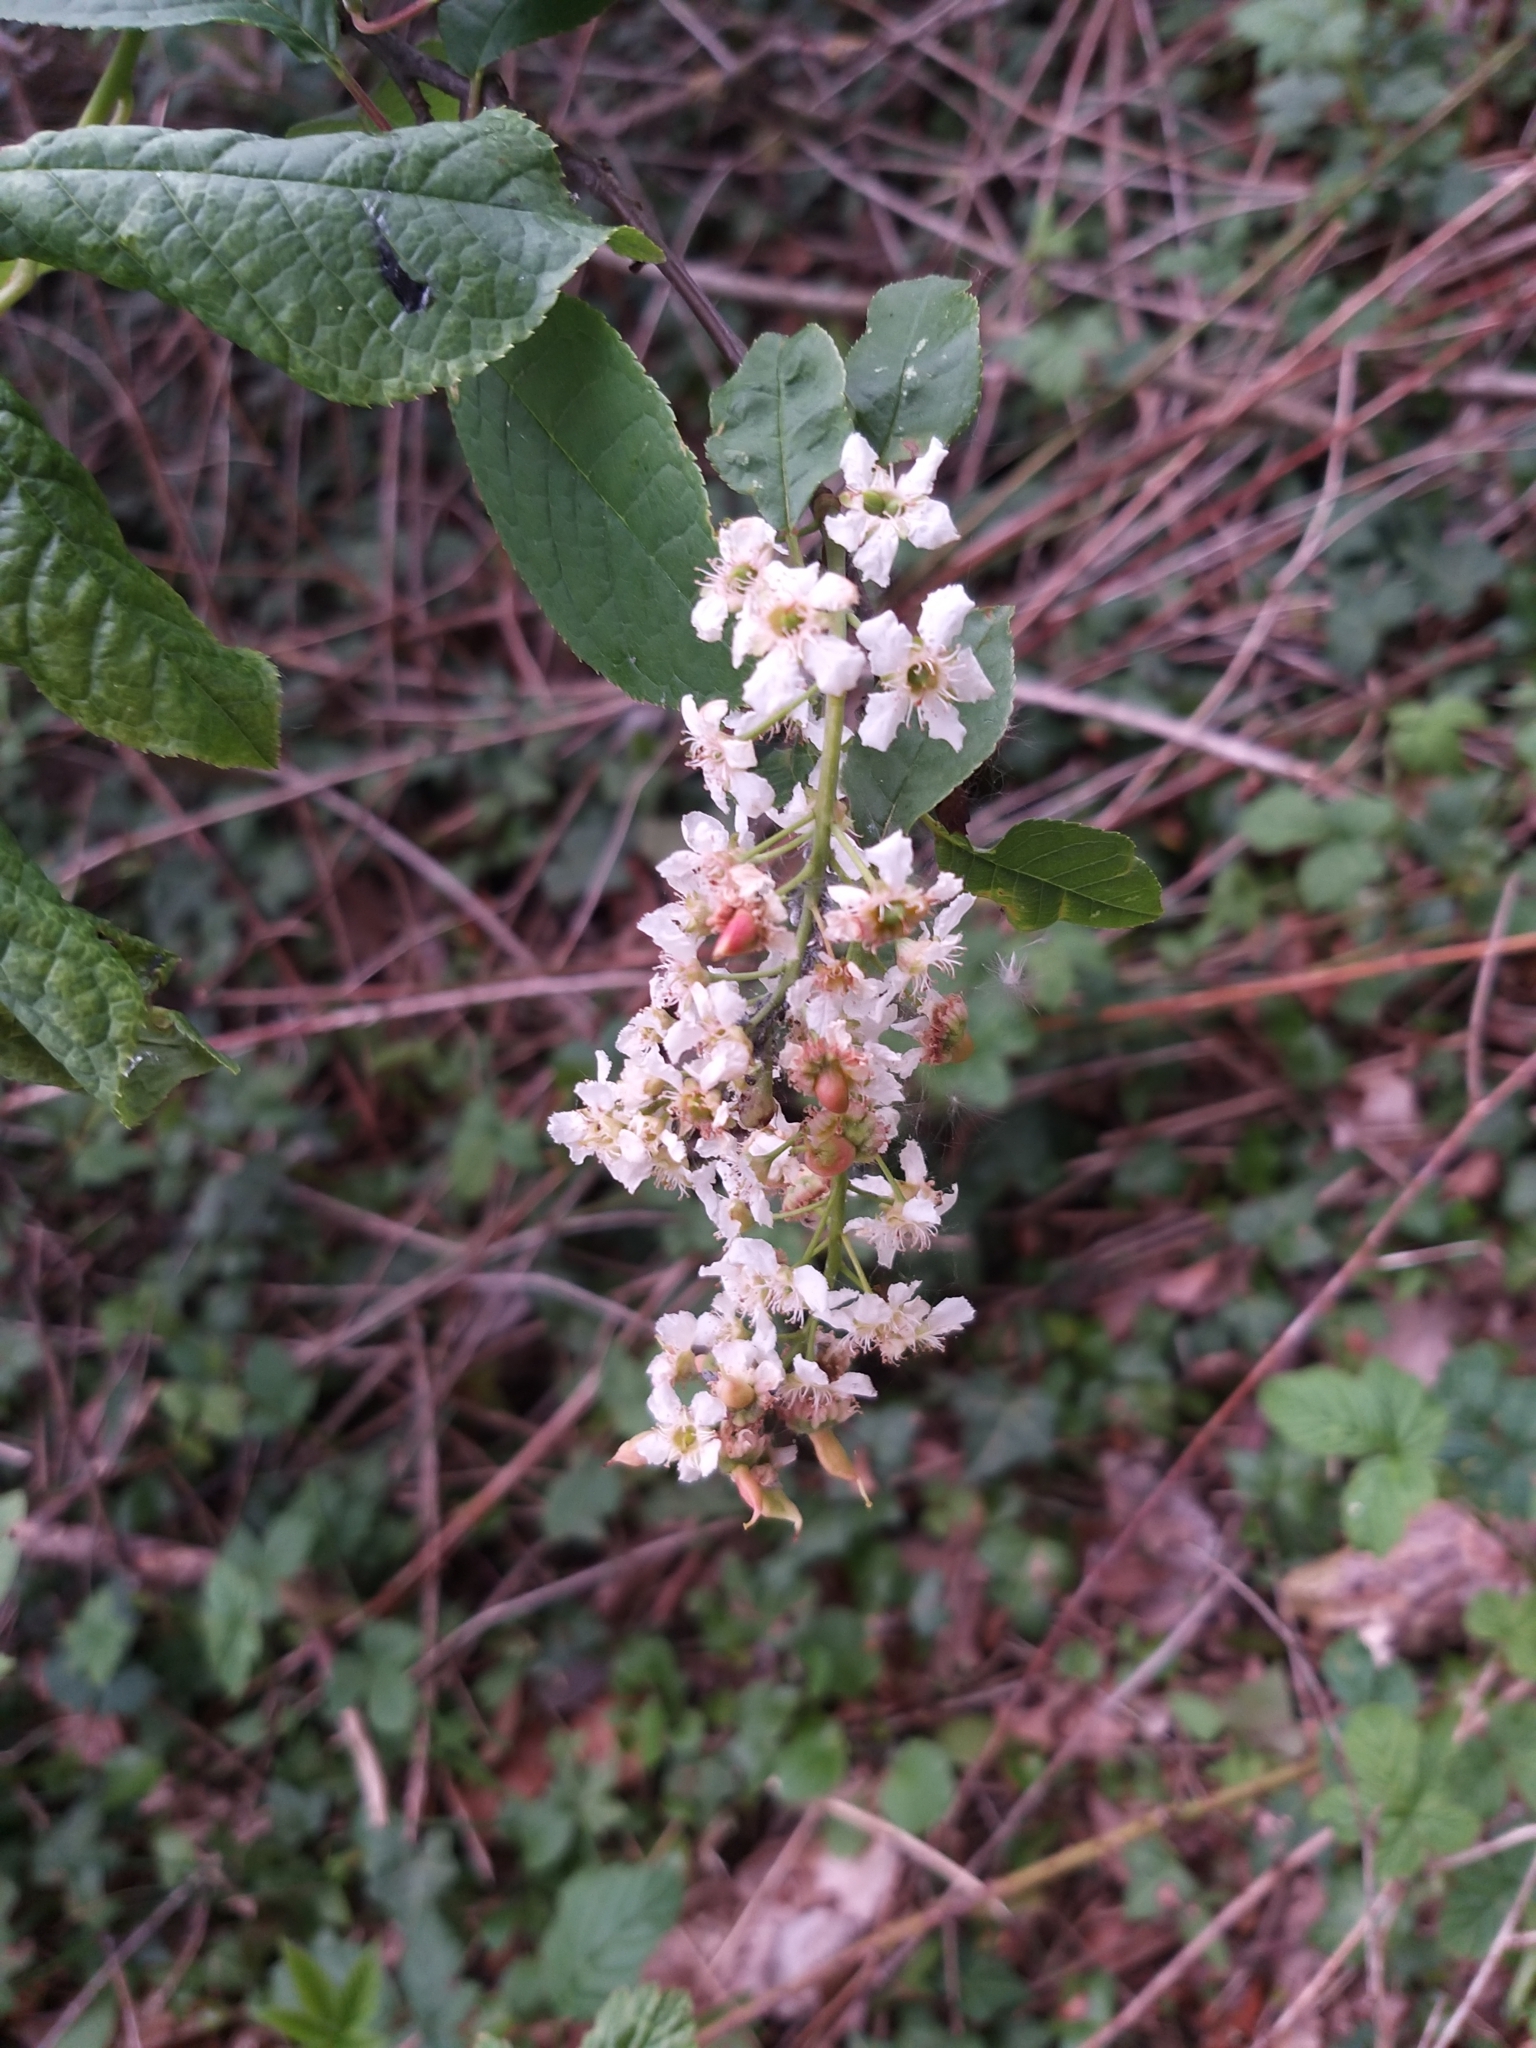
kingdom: Plantae
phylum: Tracheophyta
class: Magnoliopsida
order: Rosales
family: Rosaceae
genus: Prunus
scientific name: Prunus padus
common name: Bird cherry
